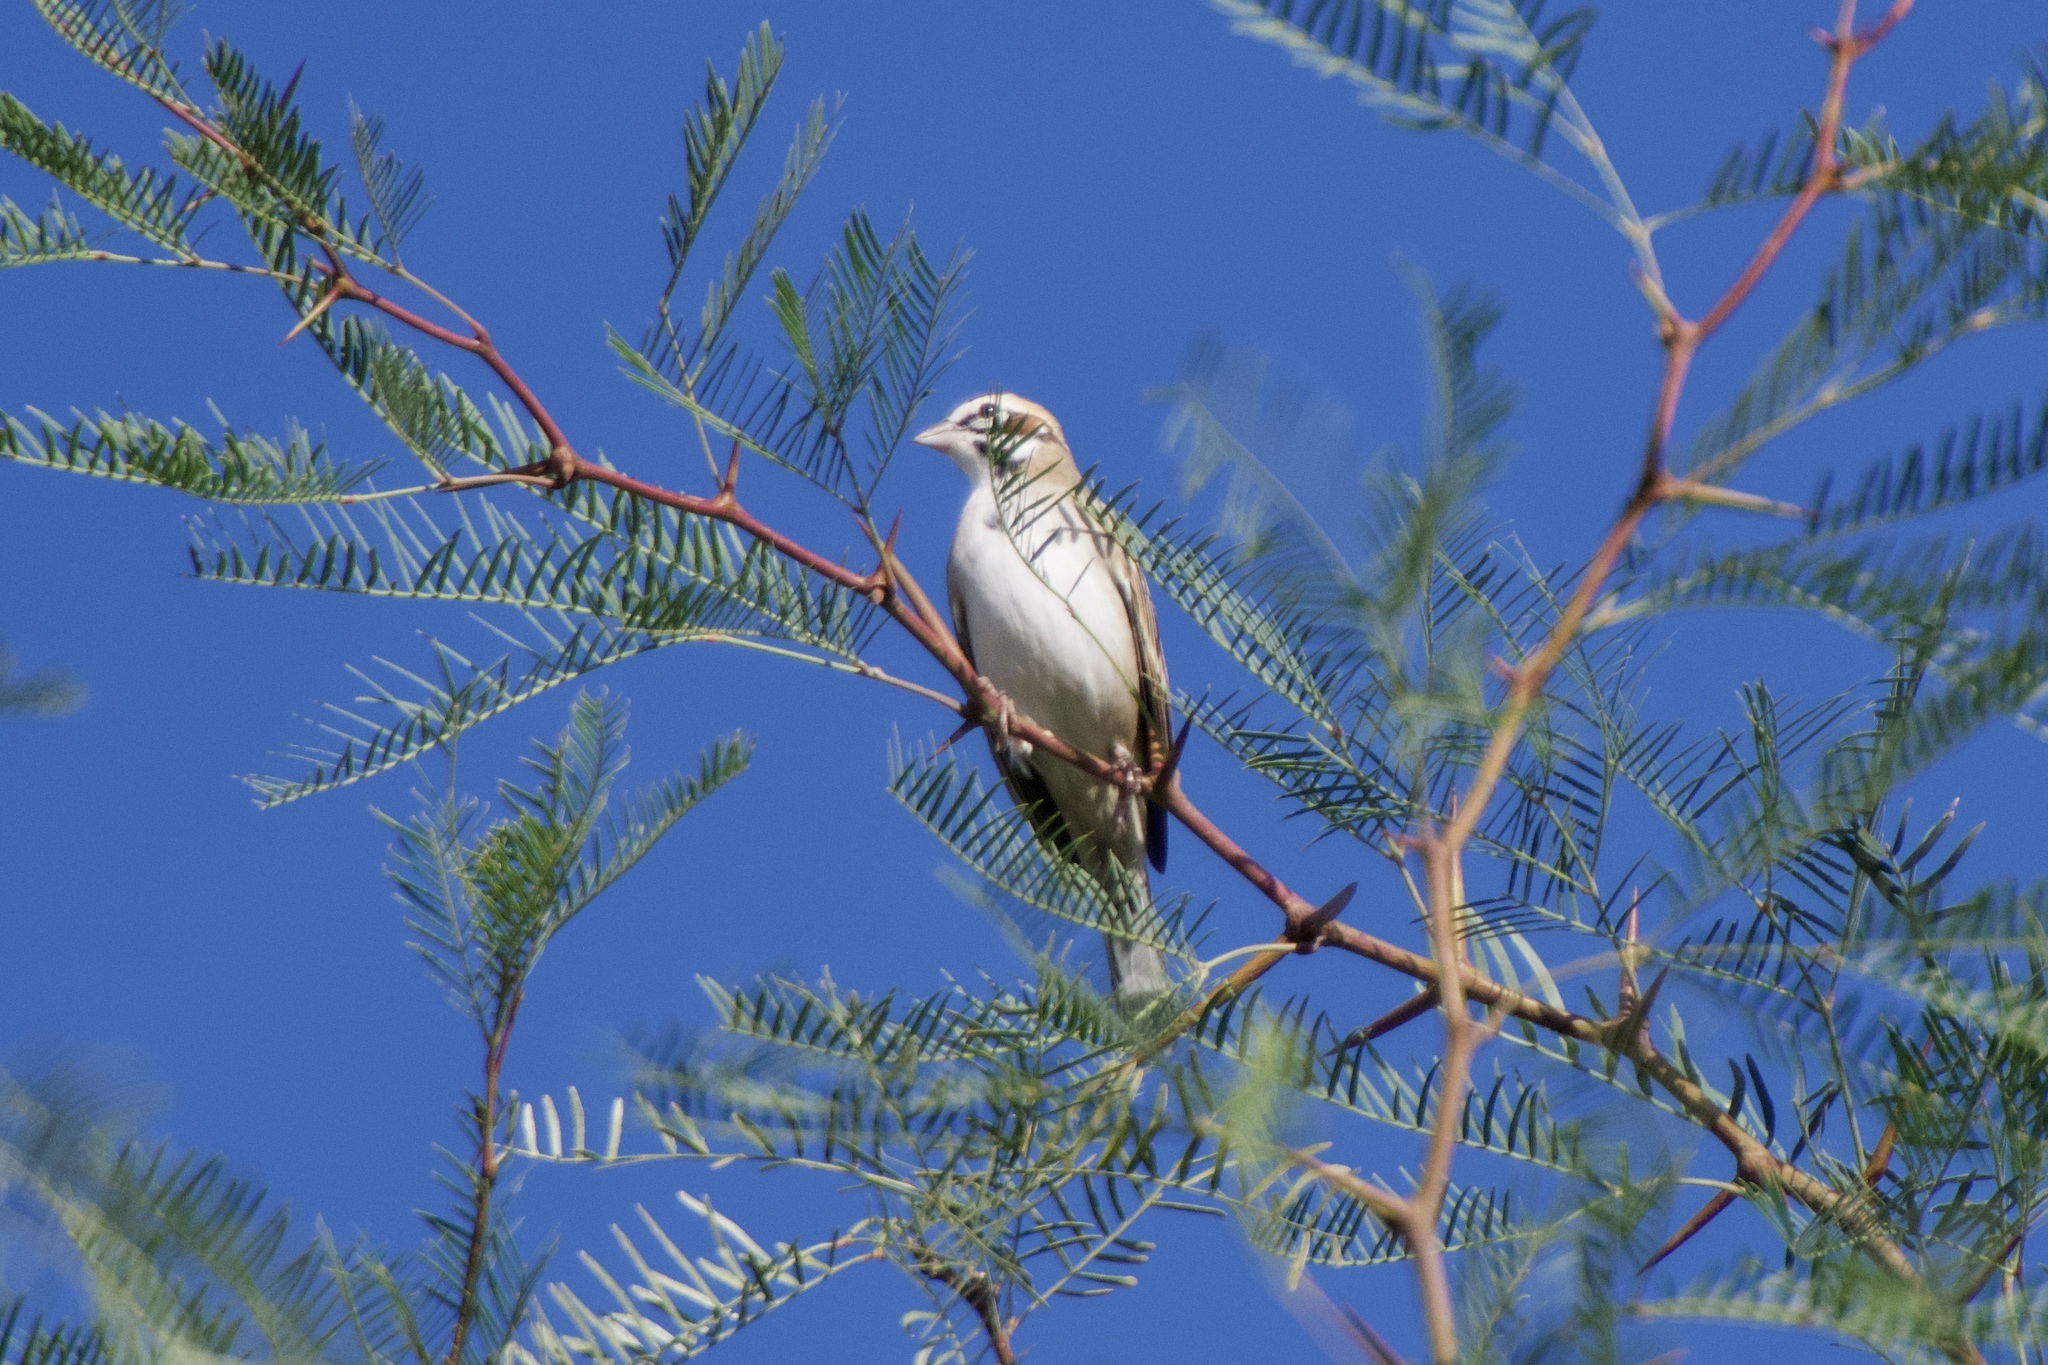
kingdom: Animalia
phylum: Chordata
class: Aves
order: Passeriformes
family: Passerellidae
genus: Chondestes
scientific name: Chondestes grammacus
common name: Lark sparrow
